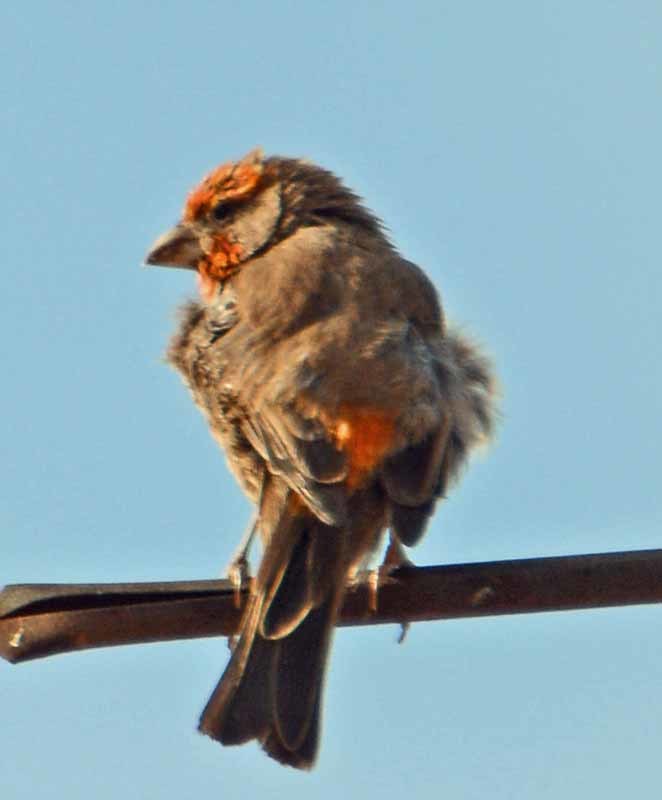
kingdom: Animalia
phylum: Chordata
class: Aves
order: Passeriformes
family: Fringillidae
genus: Haemorhous
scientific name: Haemorhous mexicanus
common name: House finch
